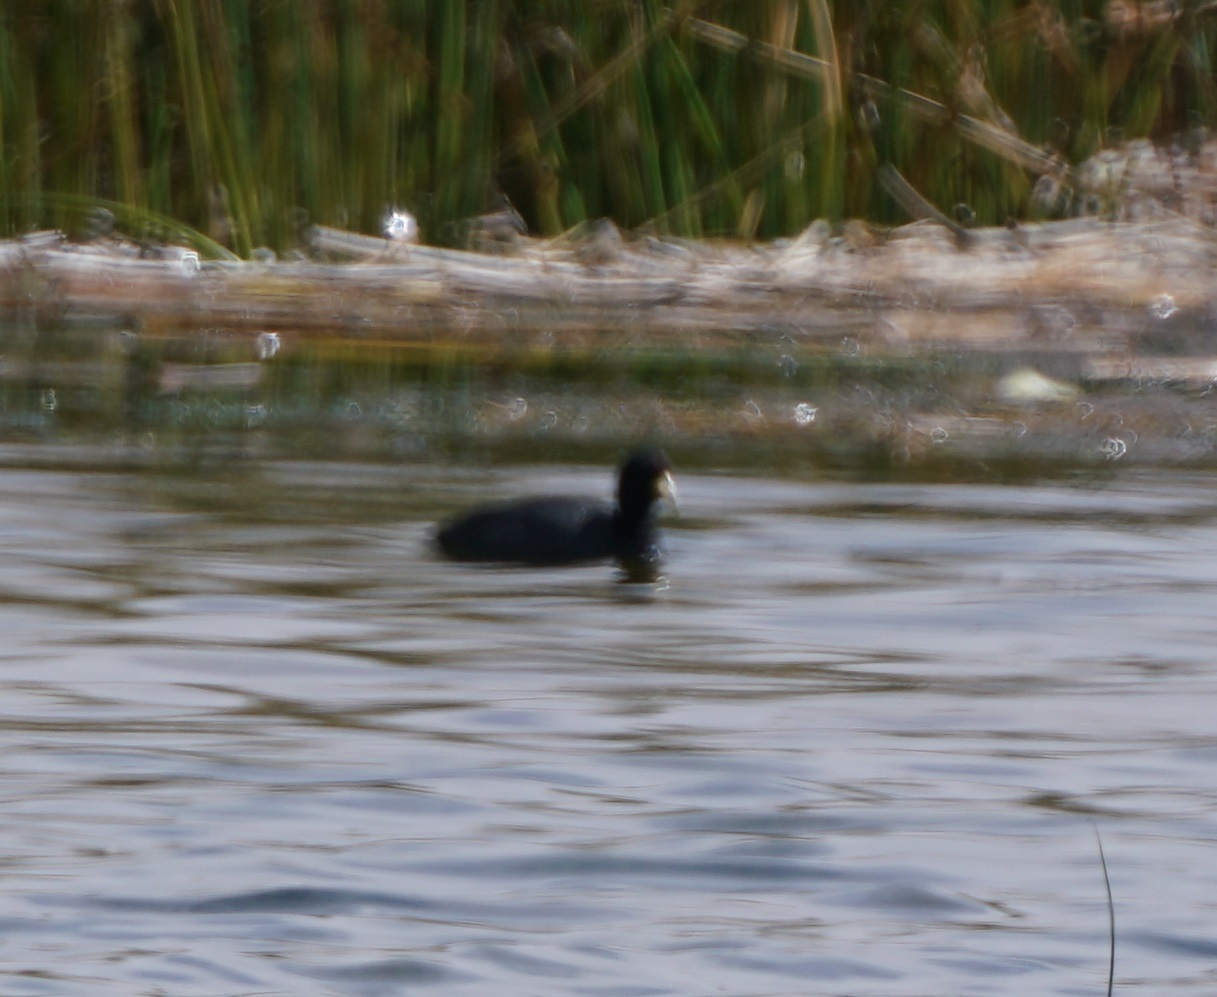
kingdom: Animalia
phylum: Chordata
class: Aves
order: Gruiformes
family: Rallidae
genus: Fulica
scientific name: Fulica ardesiaca
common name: Andean coot
